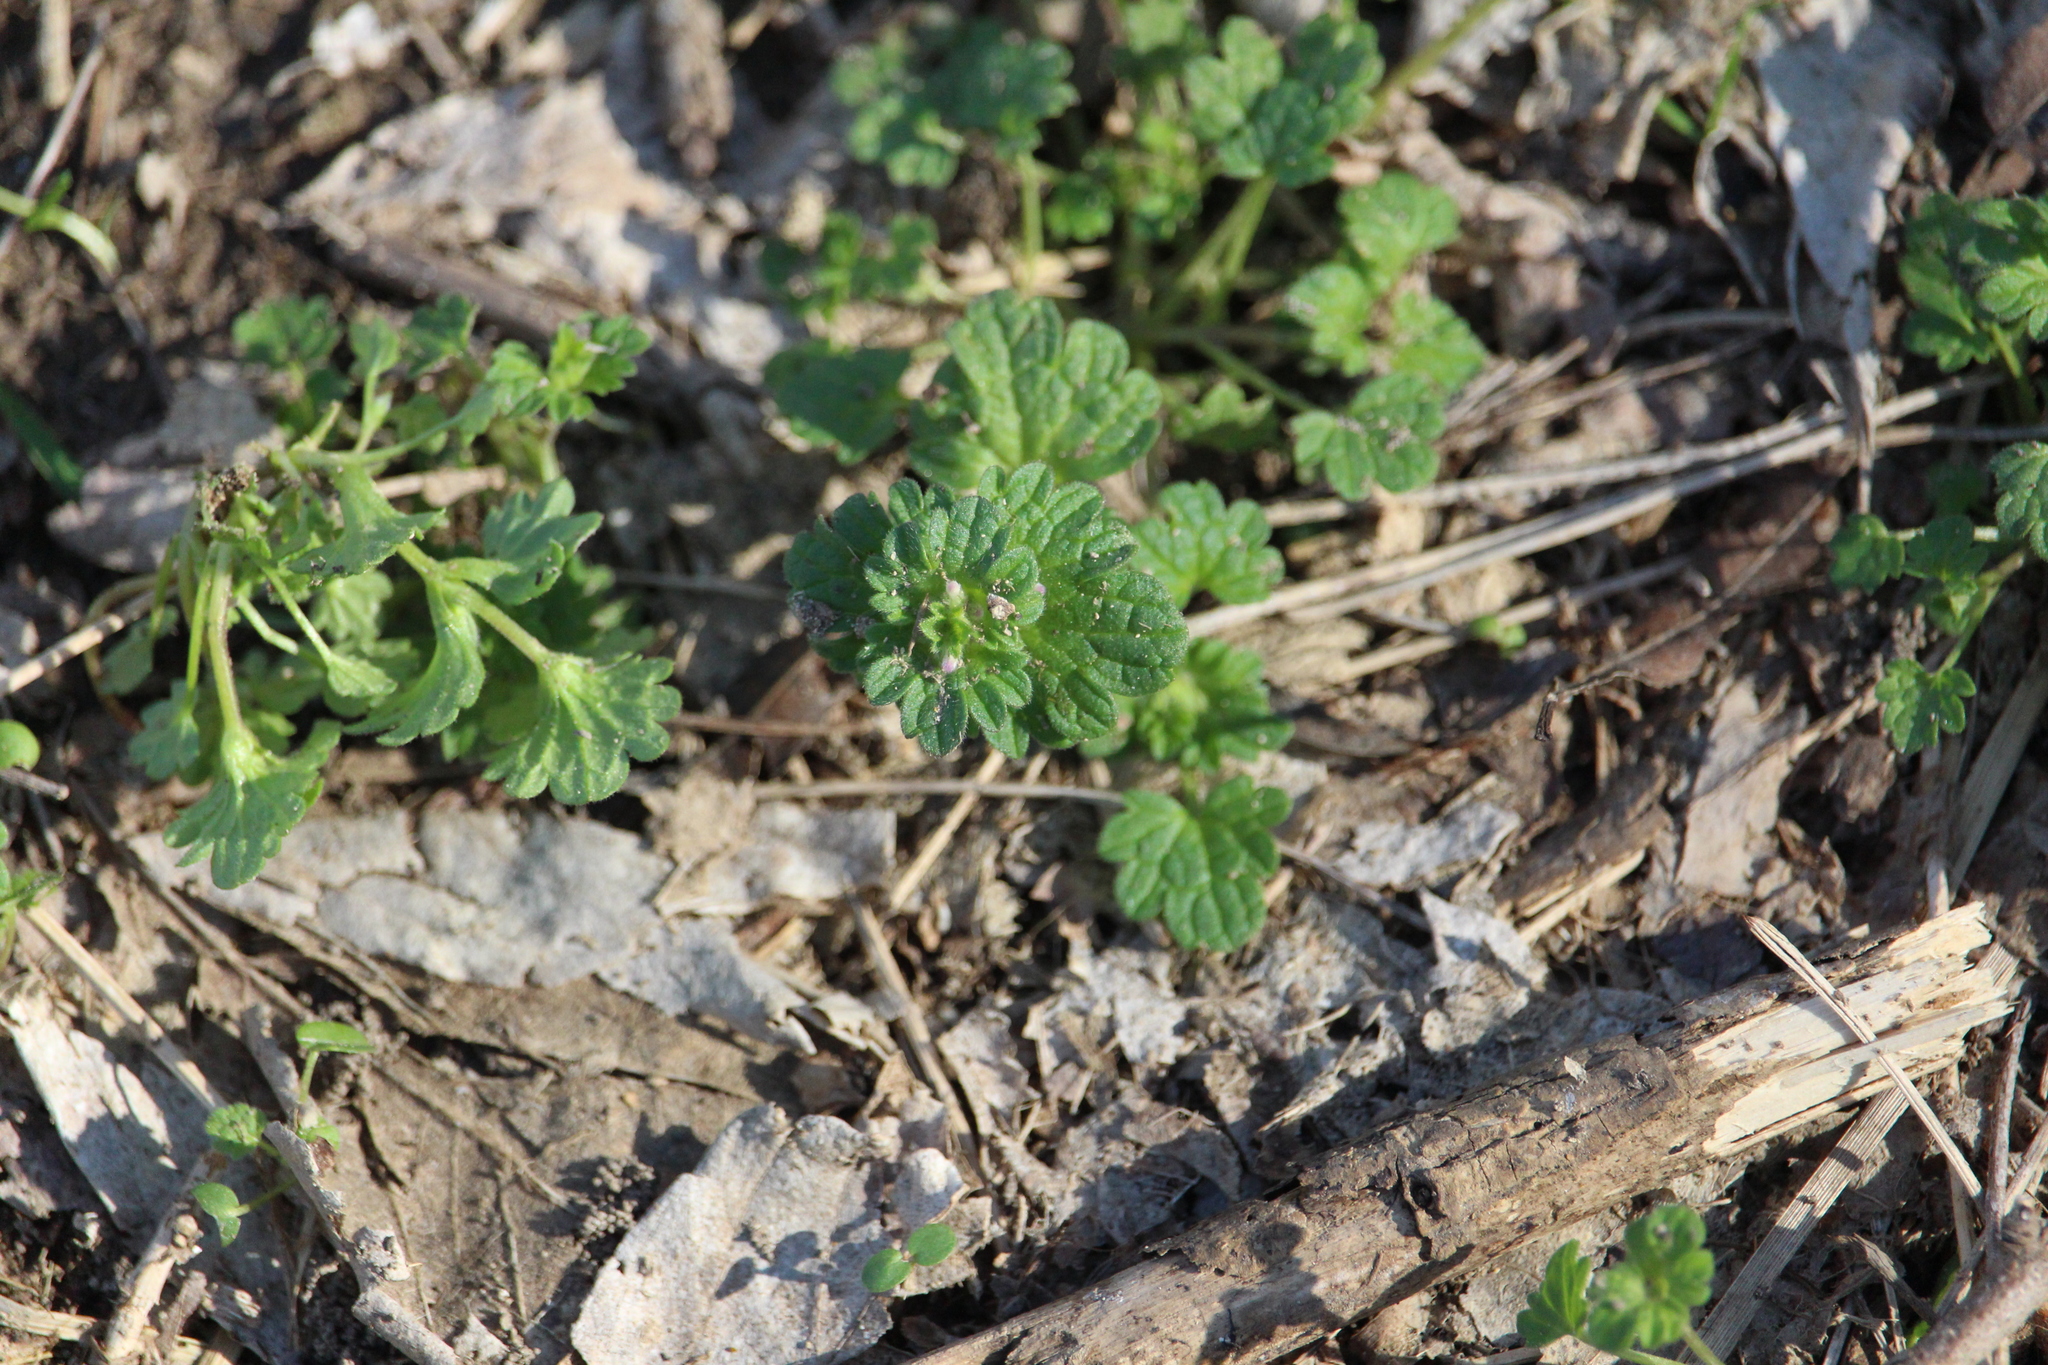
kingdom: Plantae
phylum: Tracheophyta
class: Magnoliopsida
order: Lamiales
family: Lamiaceae
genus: Lamium
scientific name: Lamium amplexicaule
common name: Henbit dead-nettle
